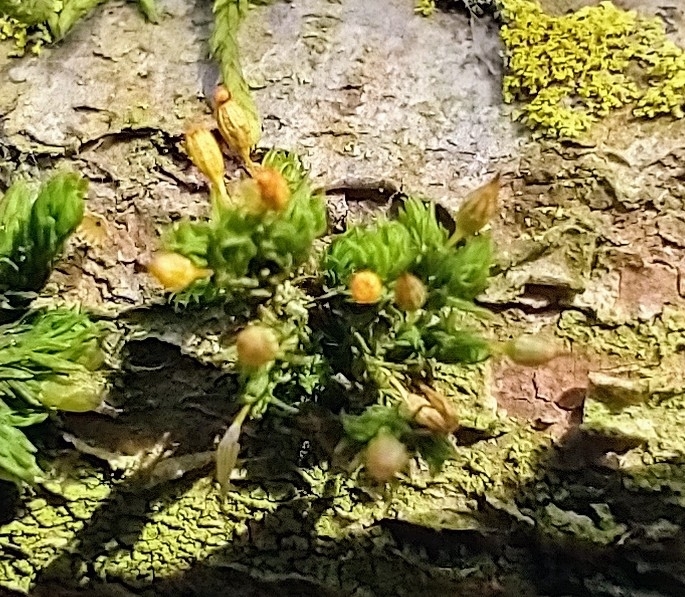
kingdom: Plantae
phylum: Bryophyta
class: Bryopsida
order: Orthotrichales
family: Orthotrichaceae
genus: Orthotrichum
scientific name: Orthotrichum pulchellum
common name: Elegant bristle-moss
